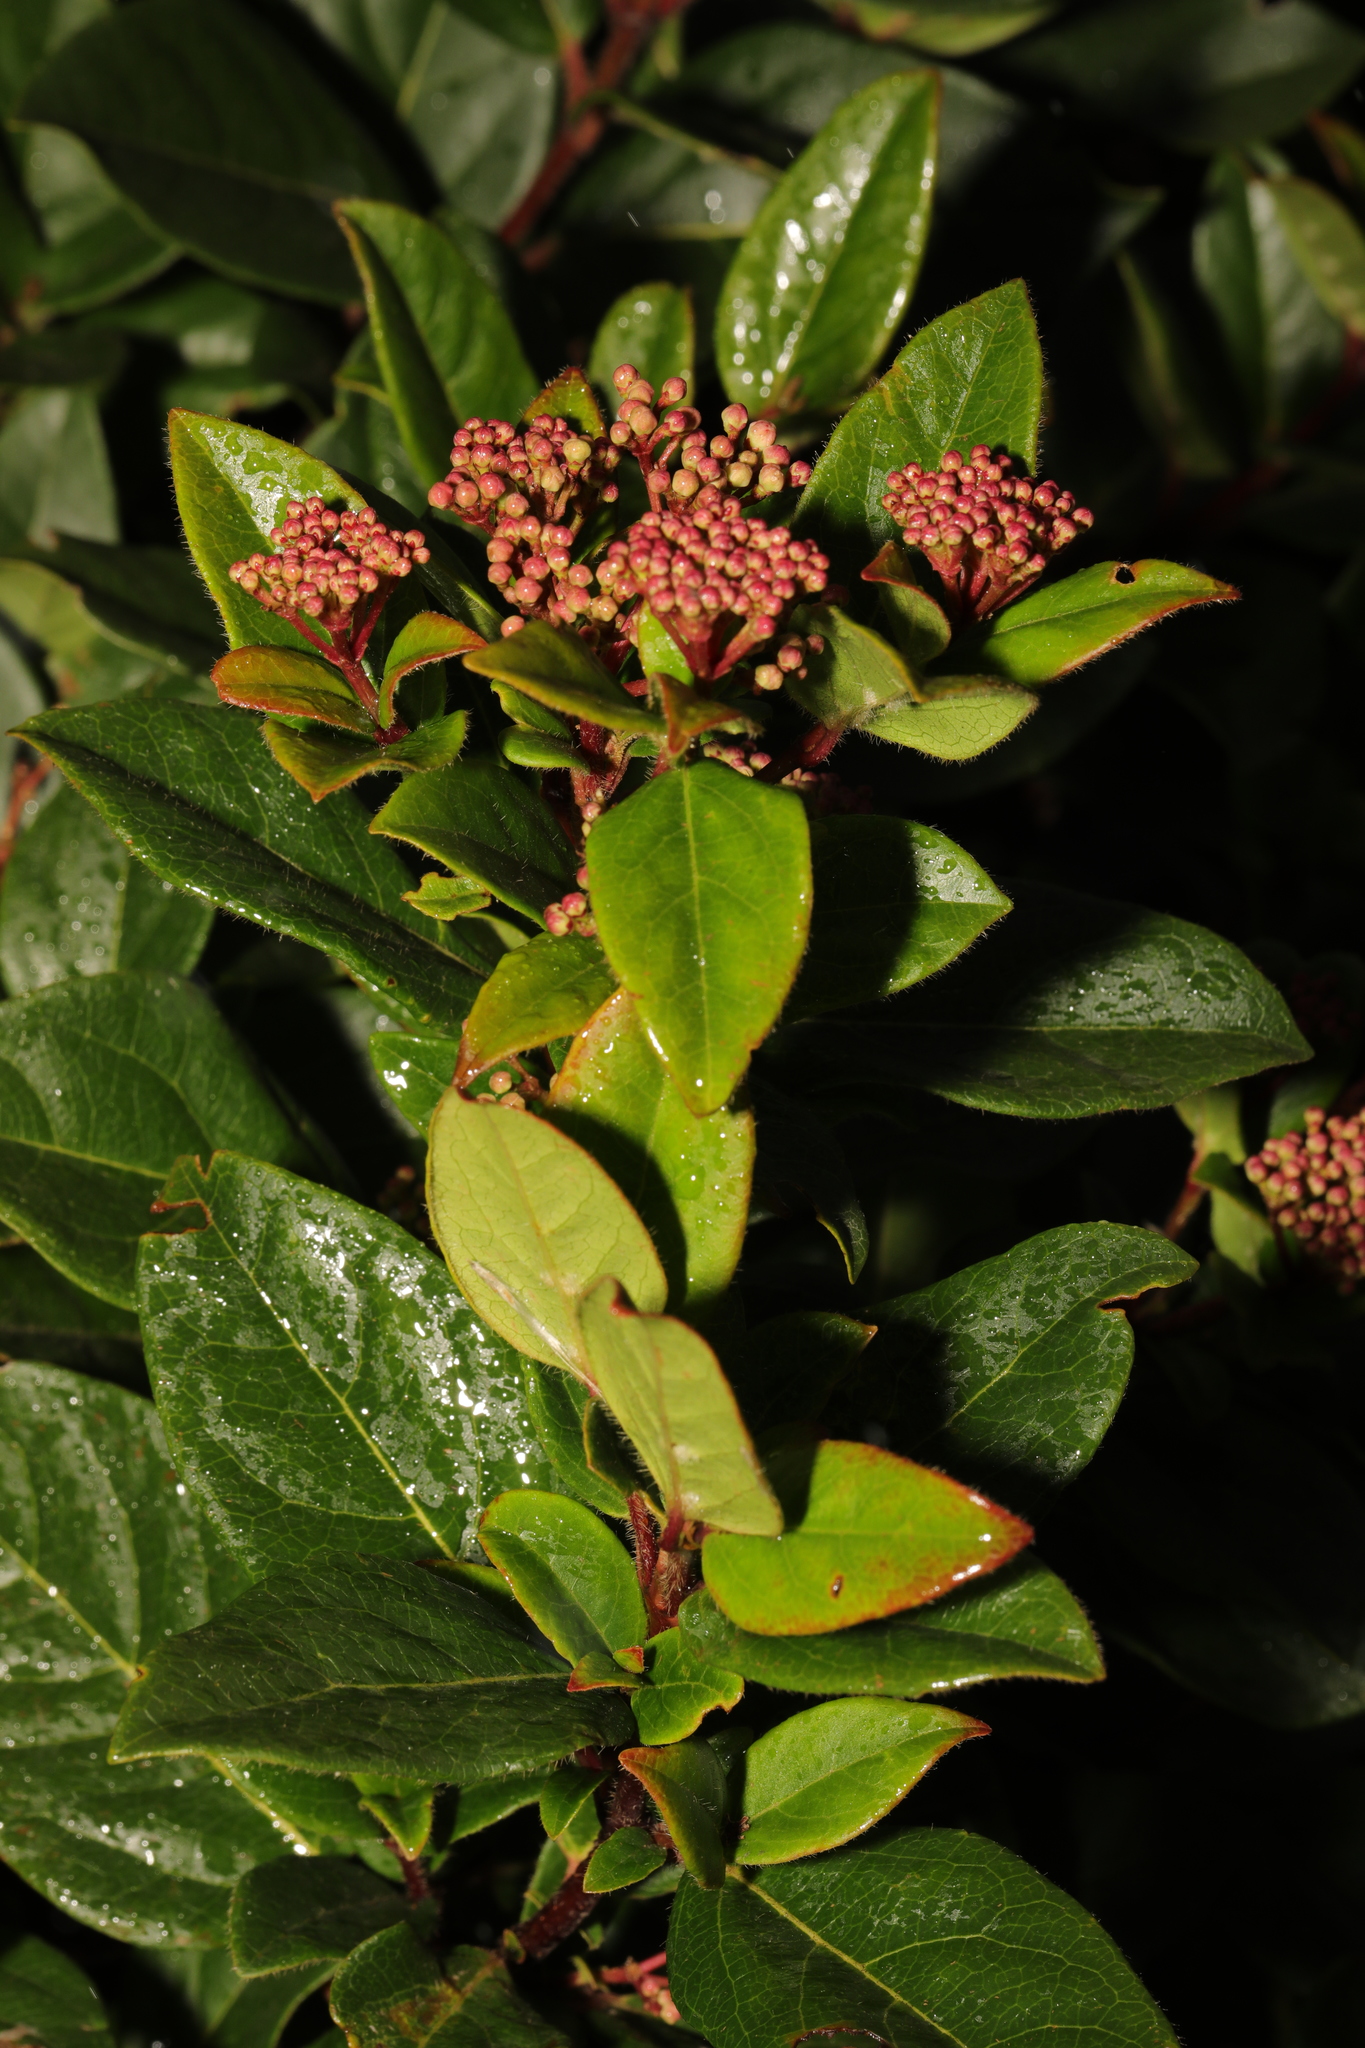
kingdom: Plantae
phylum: Tracheophyta
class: Magnoliopsida
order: Dipsacales
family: Viburnaceae
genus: Viburnum
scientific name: Viburnum tinus
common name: Laurustinus
